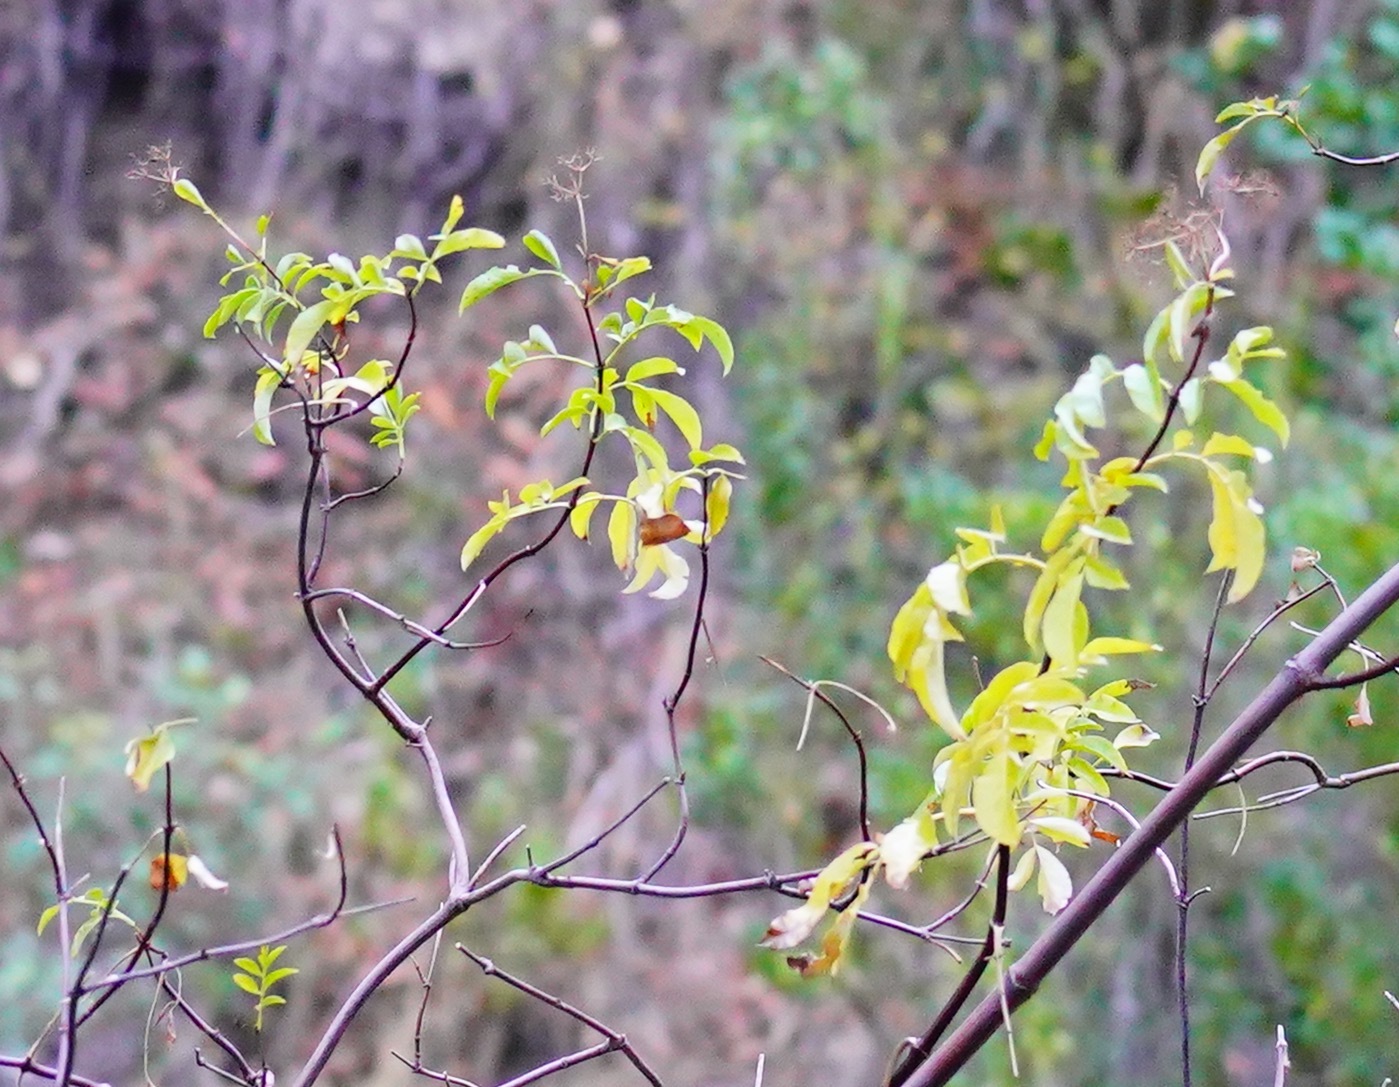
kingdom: Plantae
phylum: Tracheophyta
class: Magnoliopsida
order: Dipsacales
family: Viburnaceae
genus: Sambucus
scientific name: Sambucus cerulea
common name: Blue elder
